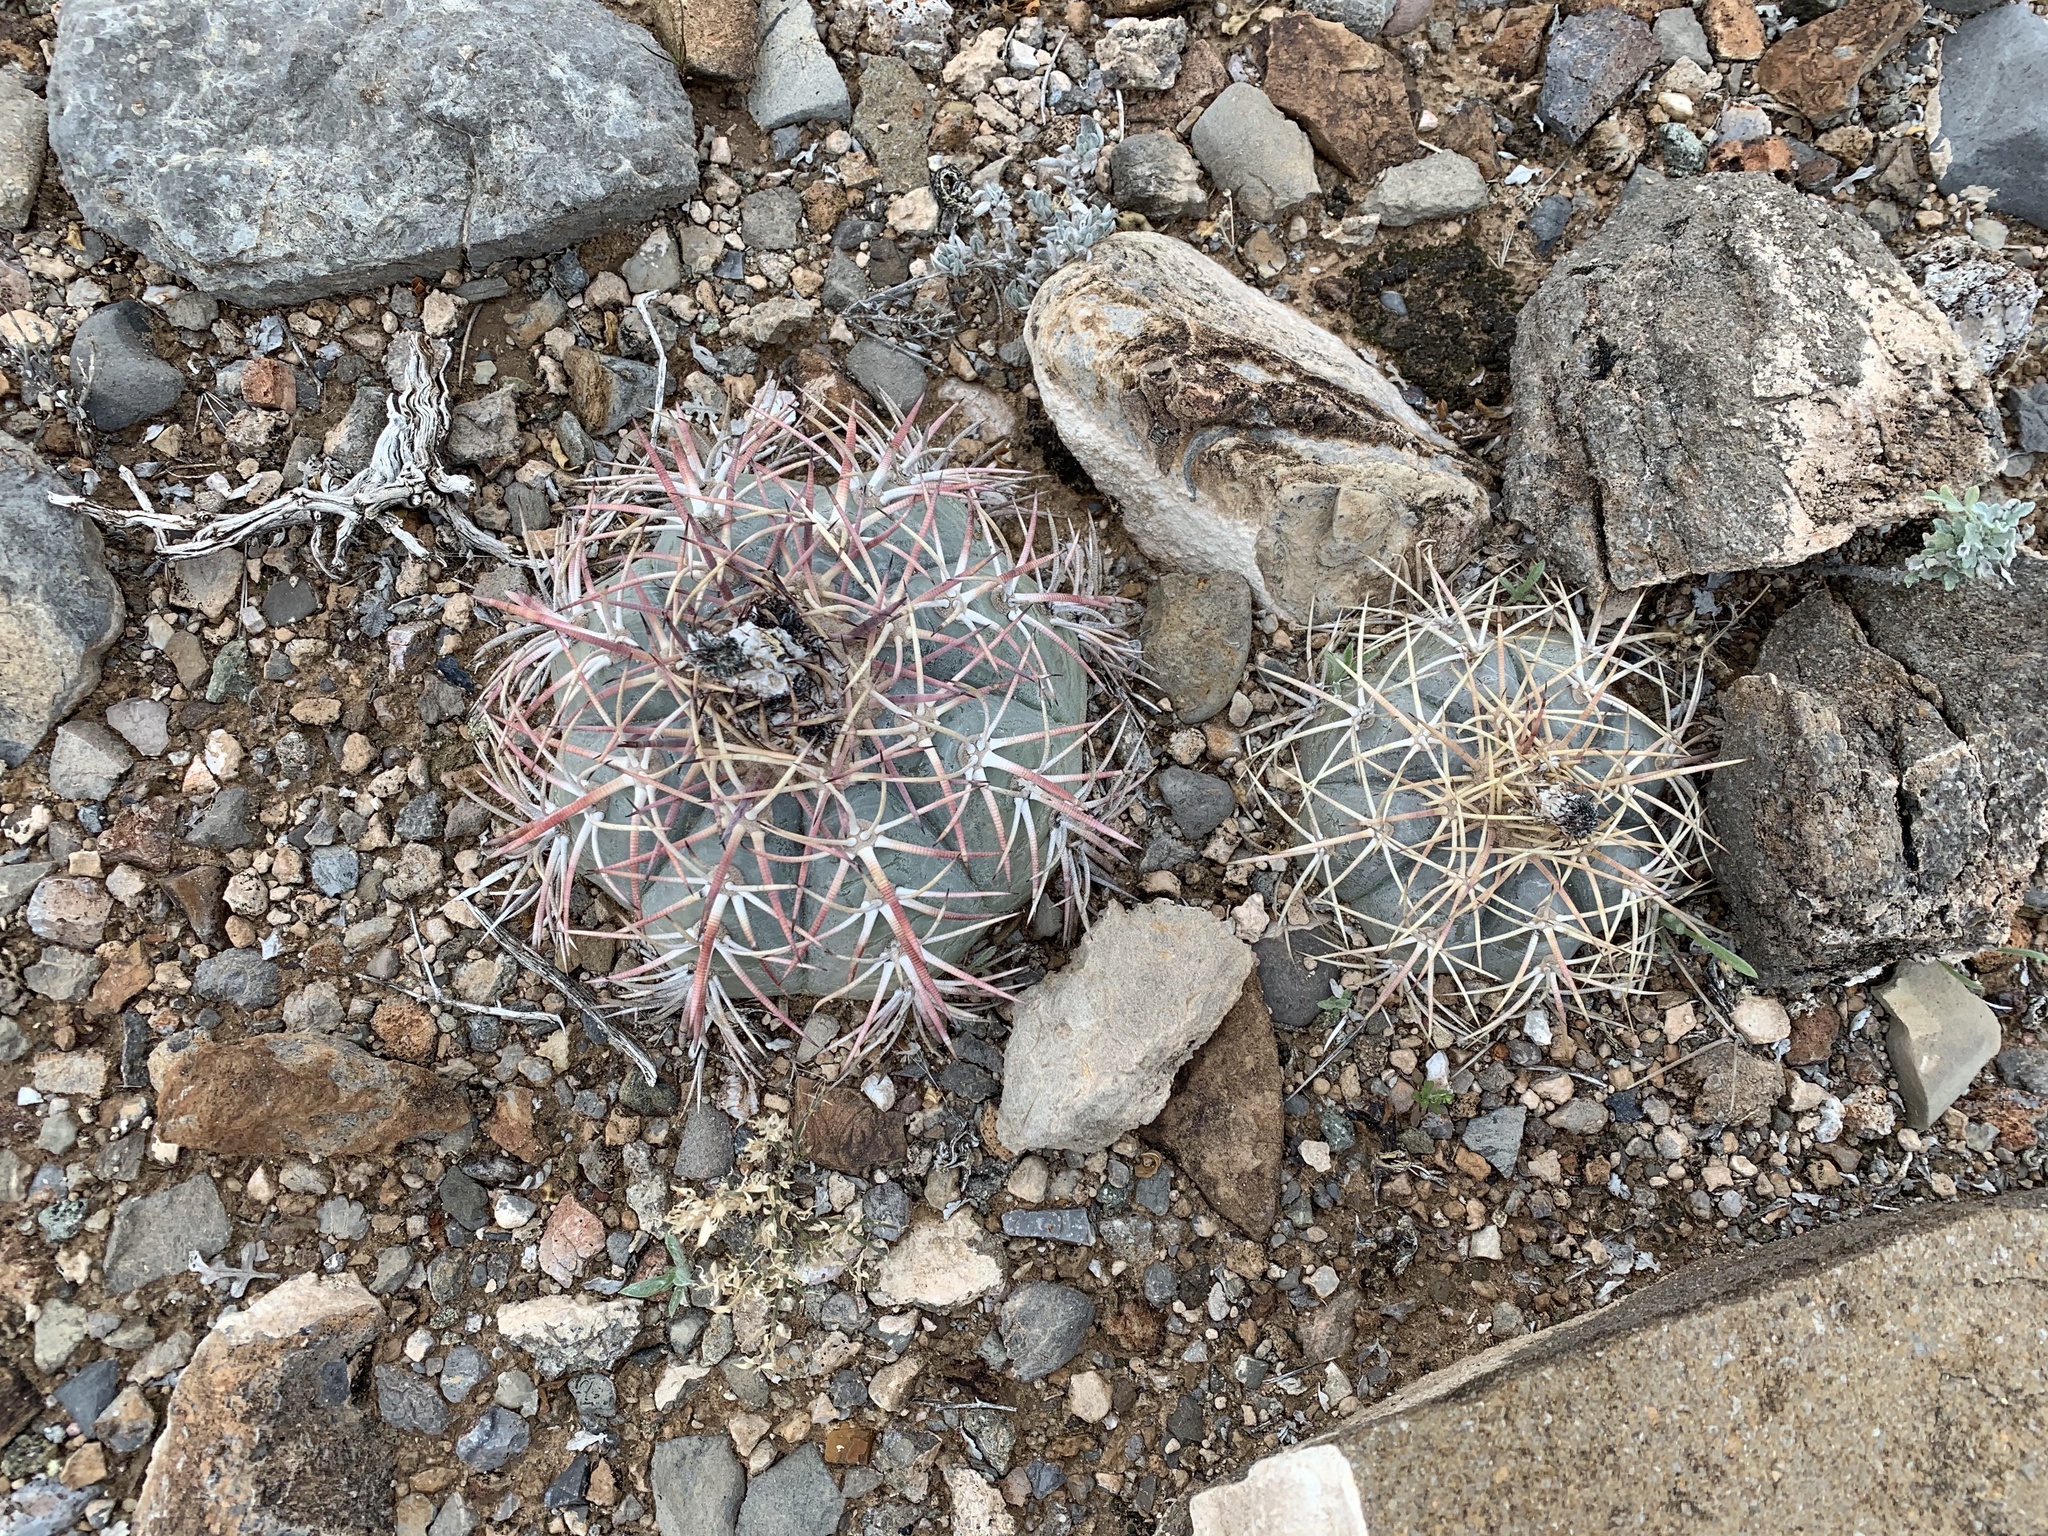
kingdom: Plantae
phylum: Tracheophyta
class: Magnoliopsida
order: Caryophyllales
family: Cactaceae
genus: Echinocactus
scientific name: Echinocactus horizonthalonius
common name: Devilshead
